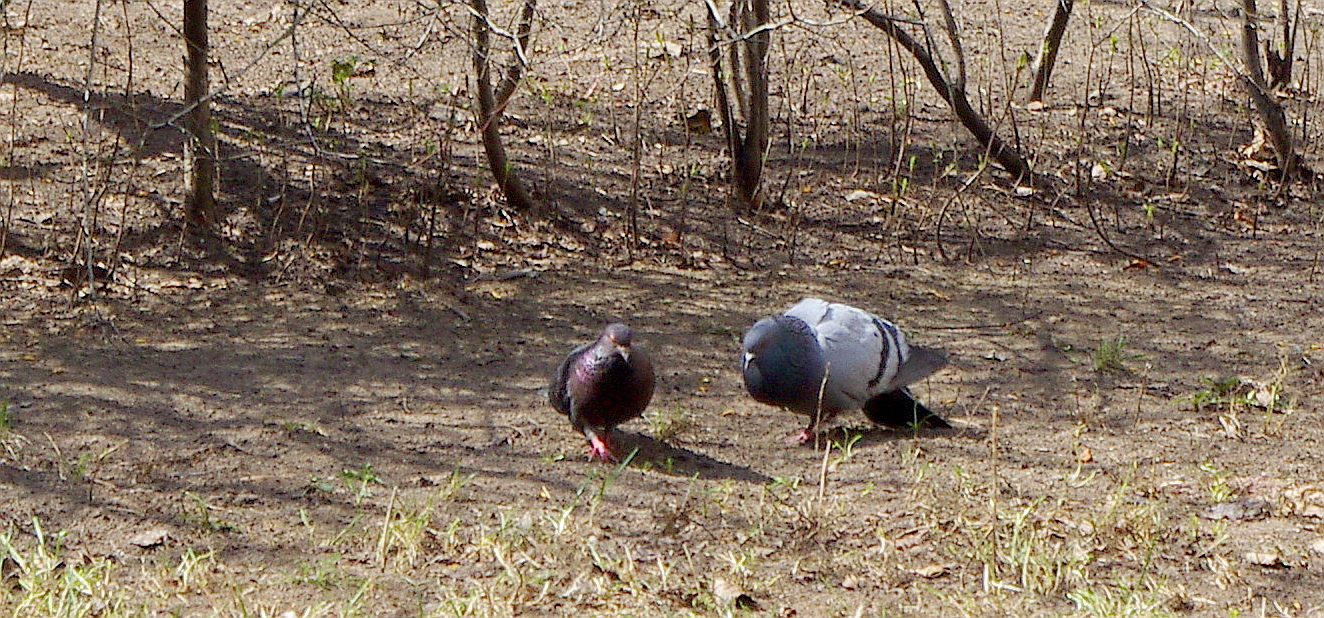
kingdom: Animalia
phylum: Chordata
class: Aves
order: Columbiformes
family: Columbidae
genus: Columba
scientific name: Columba livia
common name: Rock pigeon
